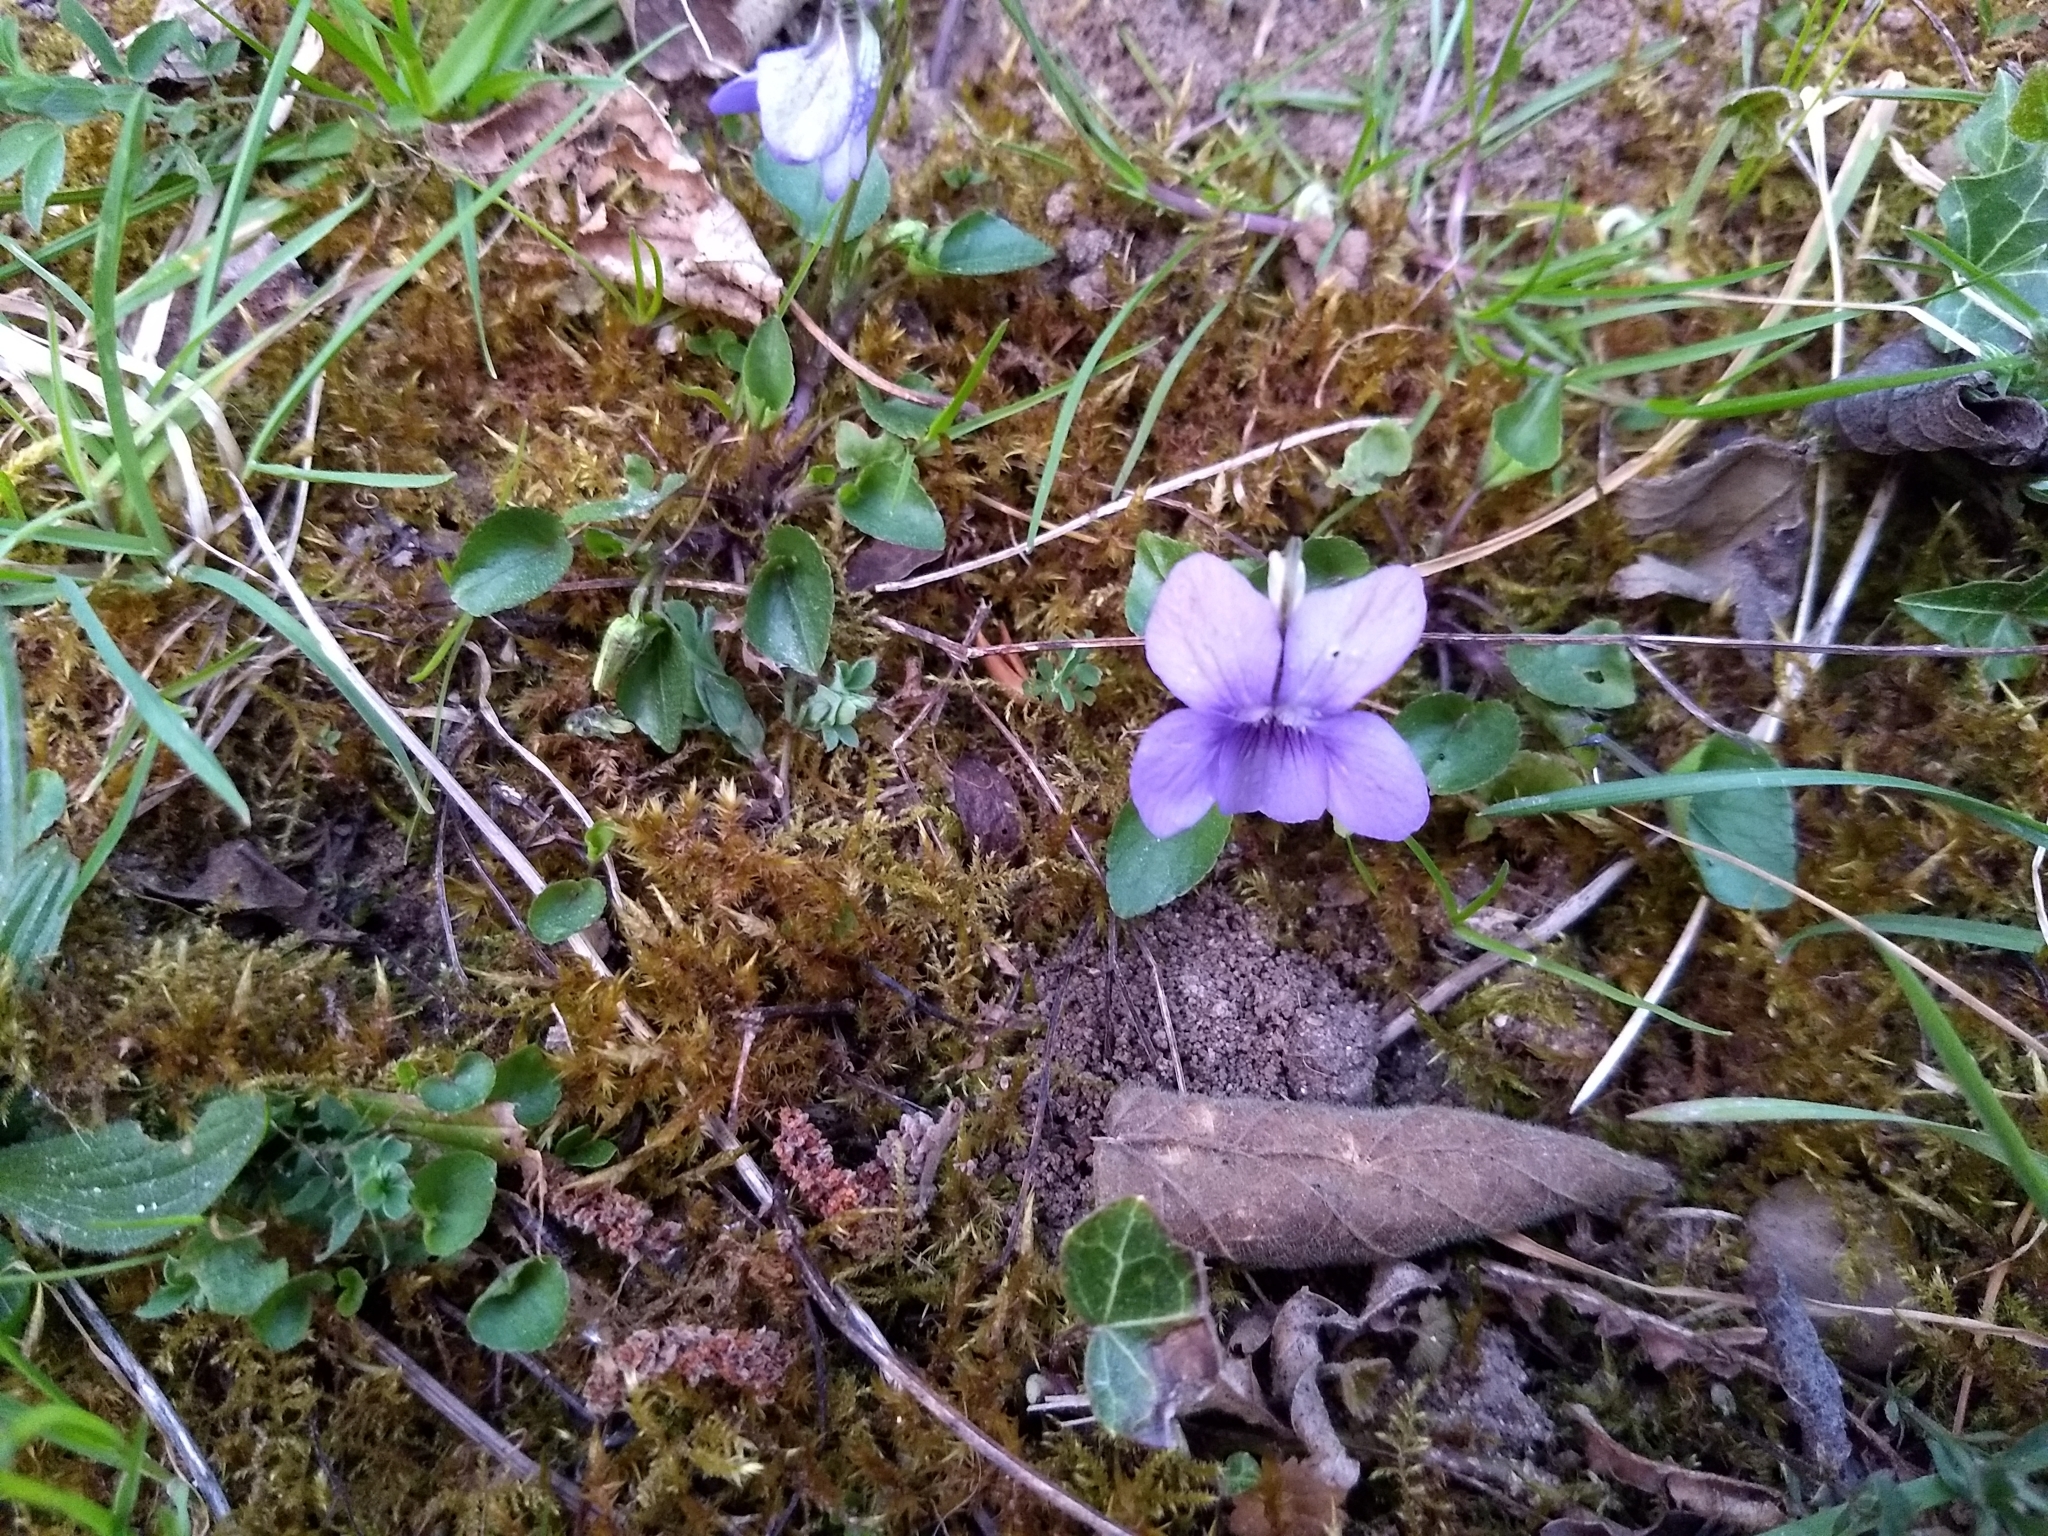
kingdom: Plantae
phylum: Tracheophyta
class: Magnoliopsida
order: Malpighiales
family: Violaceae
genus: Viola
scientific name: Viola riviniana
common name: Common dog-violet
